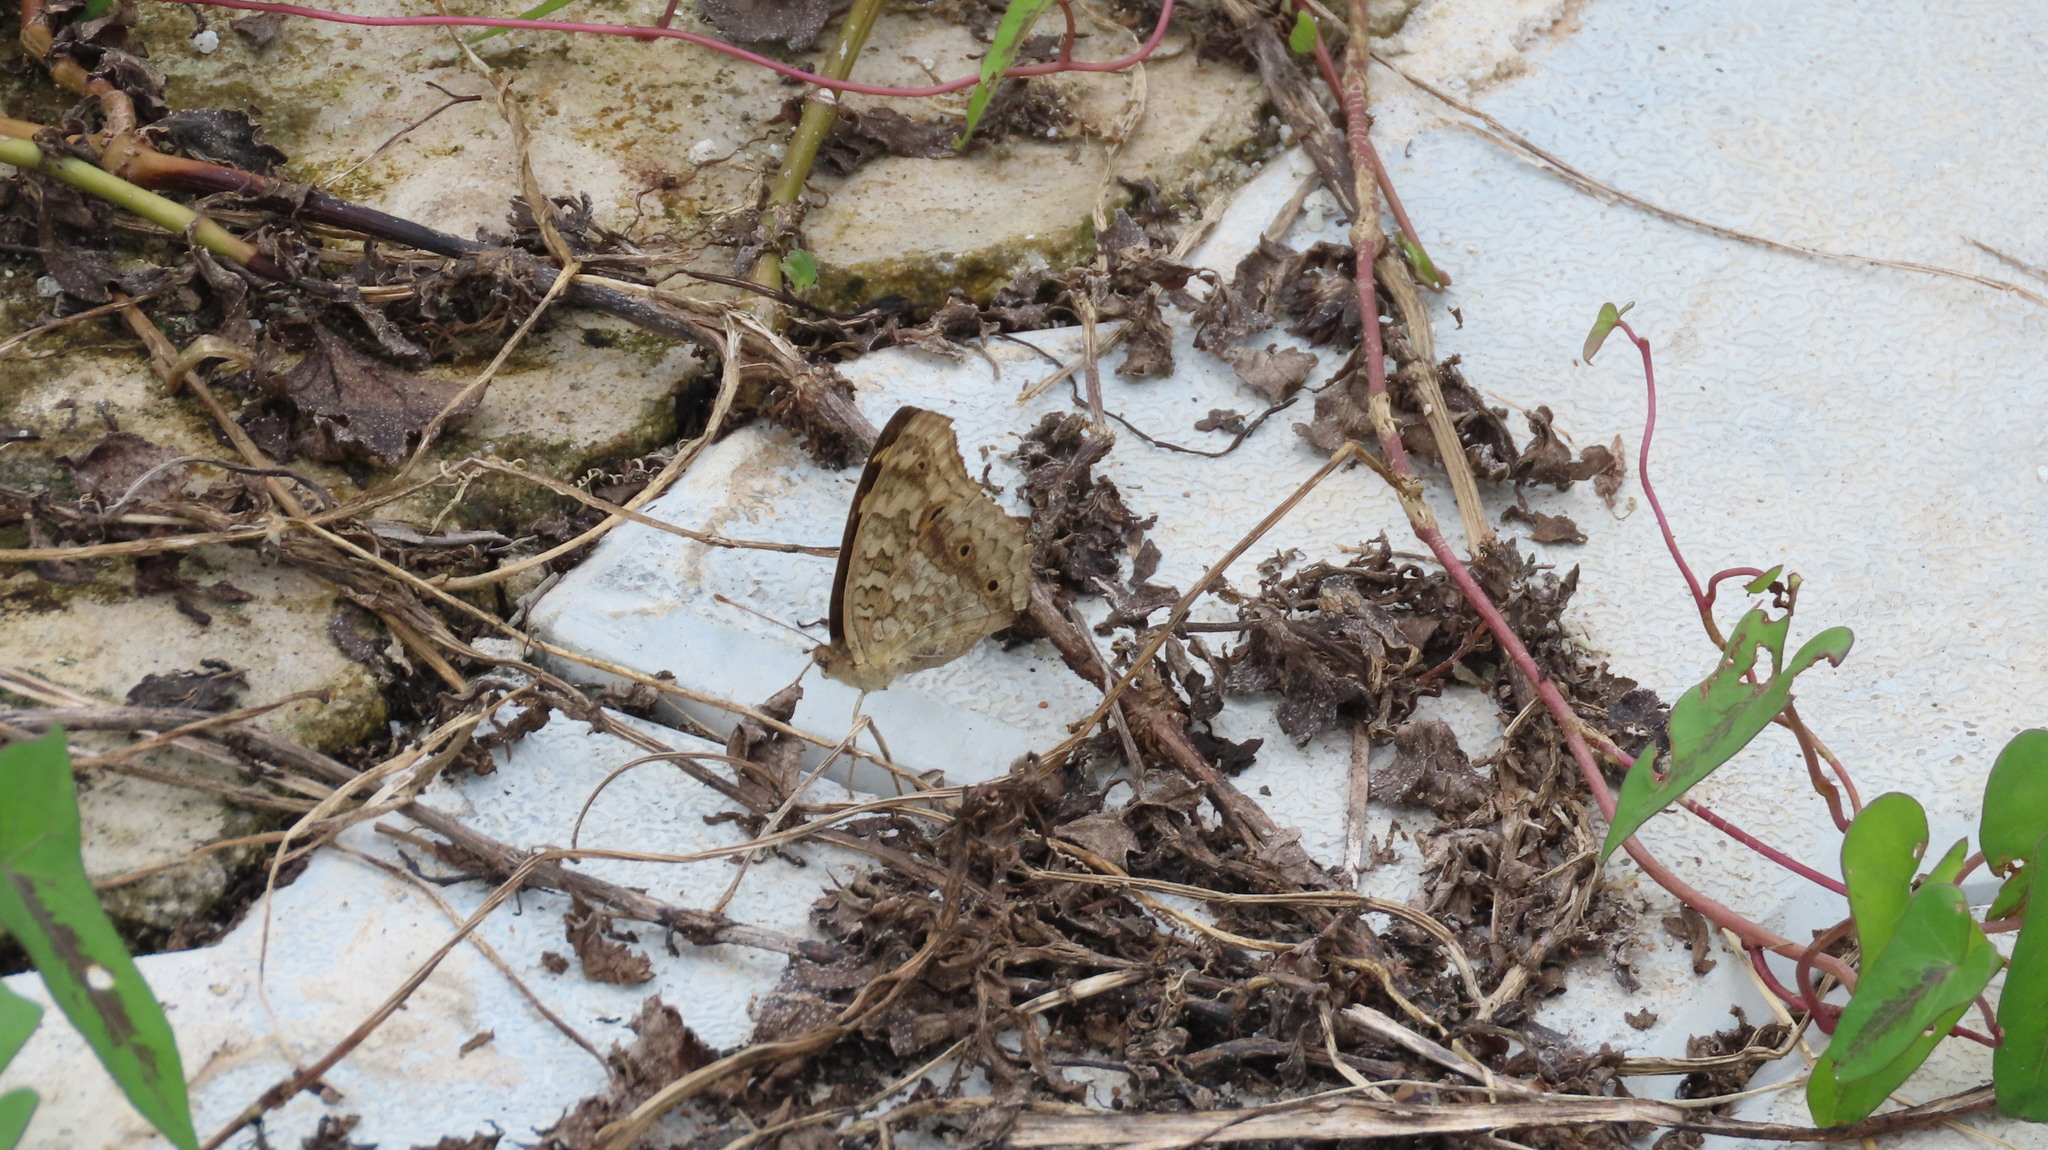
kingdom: Animalia
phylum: Arthropoda
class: Insecta
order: Lepidoptera
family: Nymphalidae
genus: Junonia
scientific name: Junonia lemonias
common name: Lemon pansy
